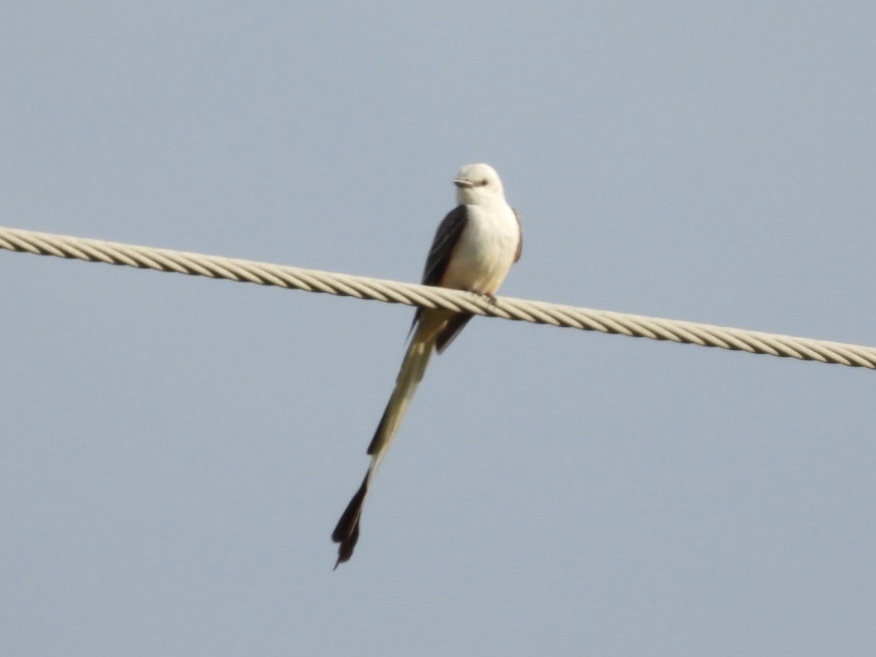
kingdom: Animalia
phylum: Chordata
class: Aves
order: Passeriformes
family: Tyrannidae
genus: Tyrannus
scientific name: Tyrannus forficatus
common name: Scissor-tailed flycatcher
